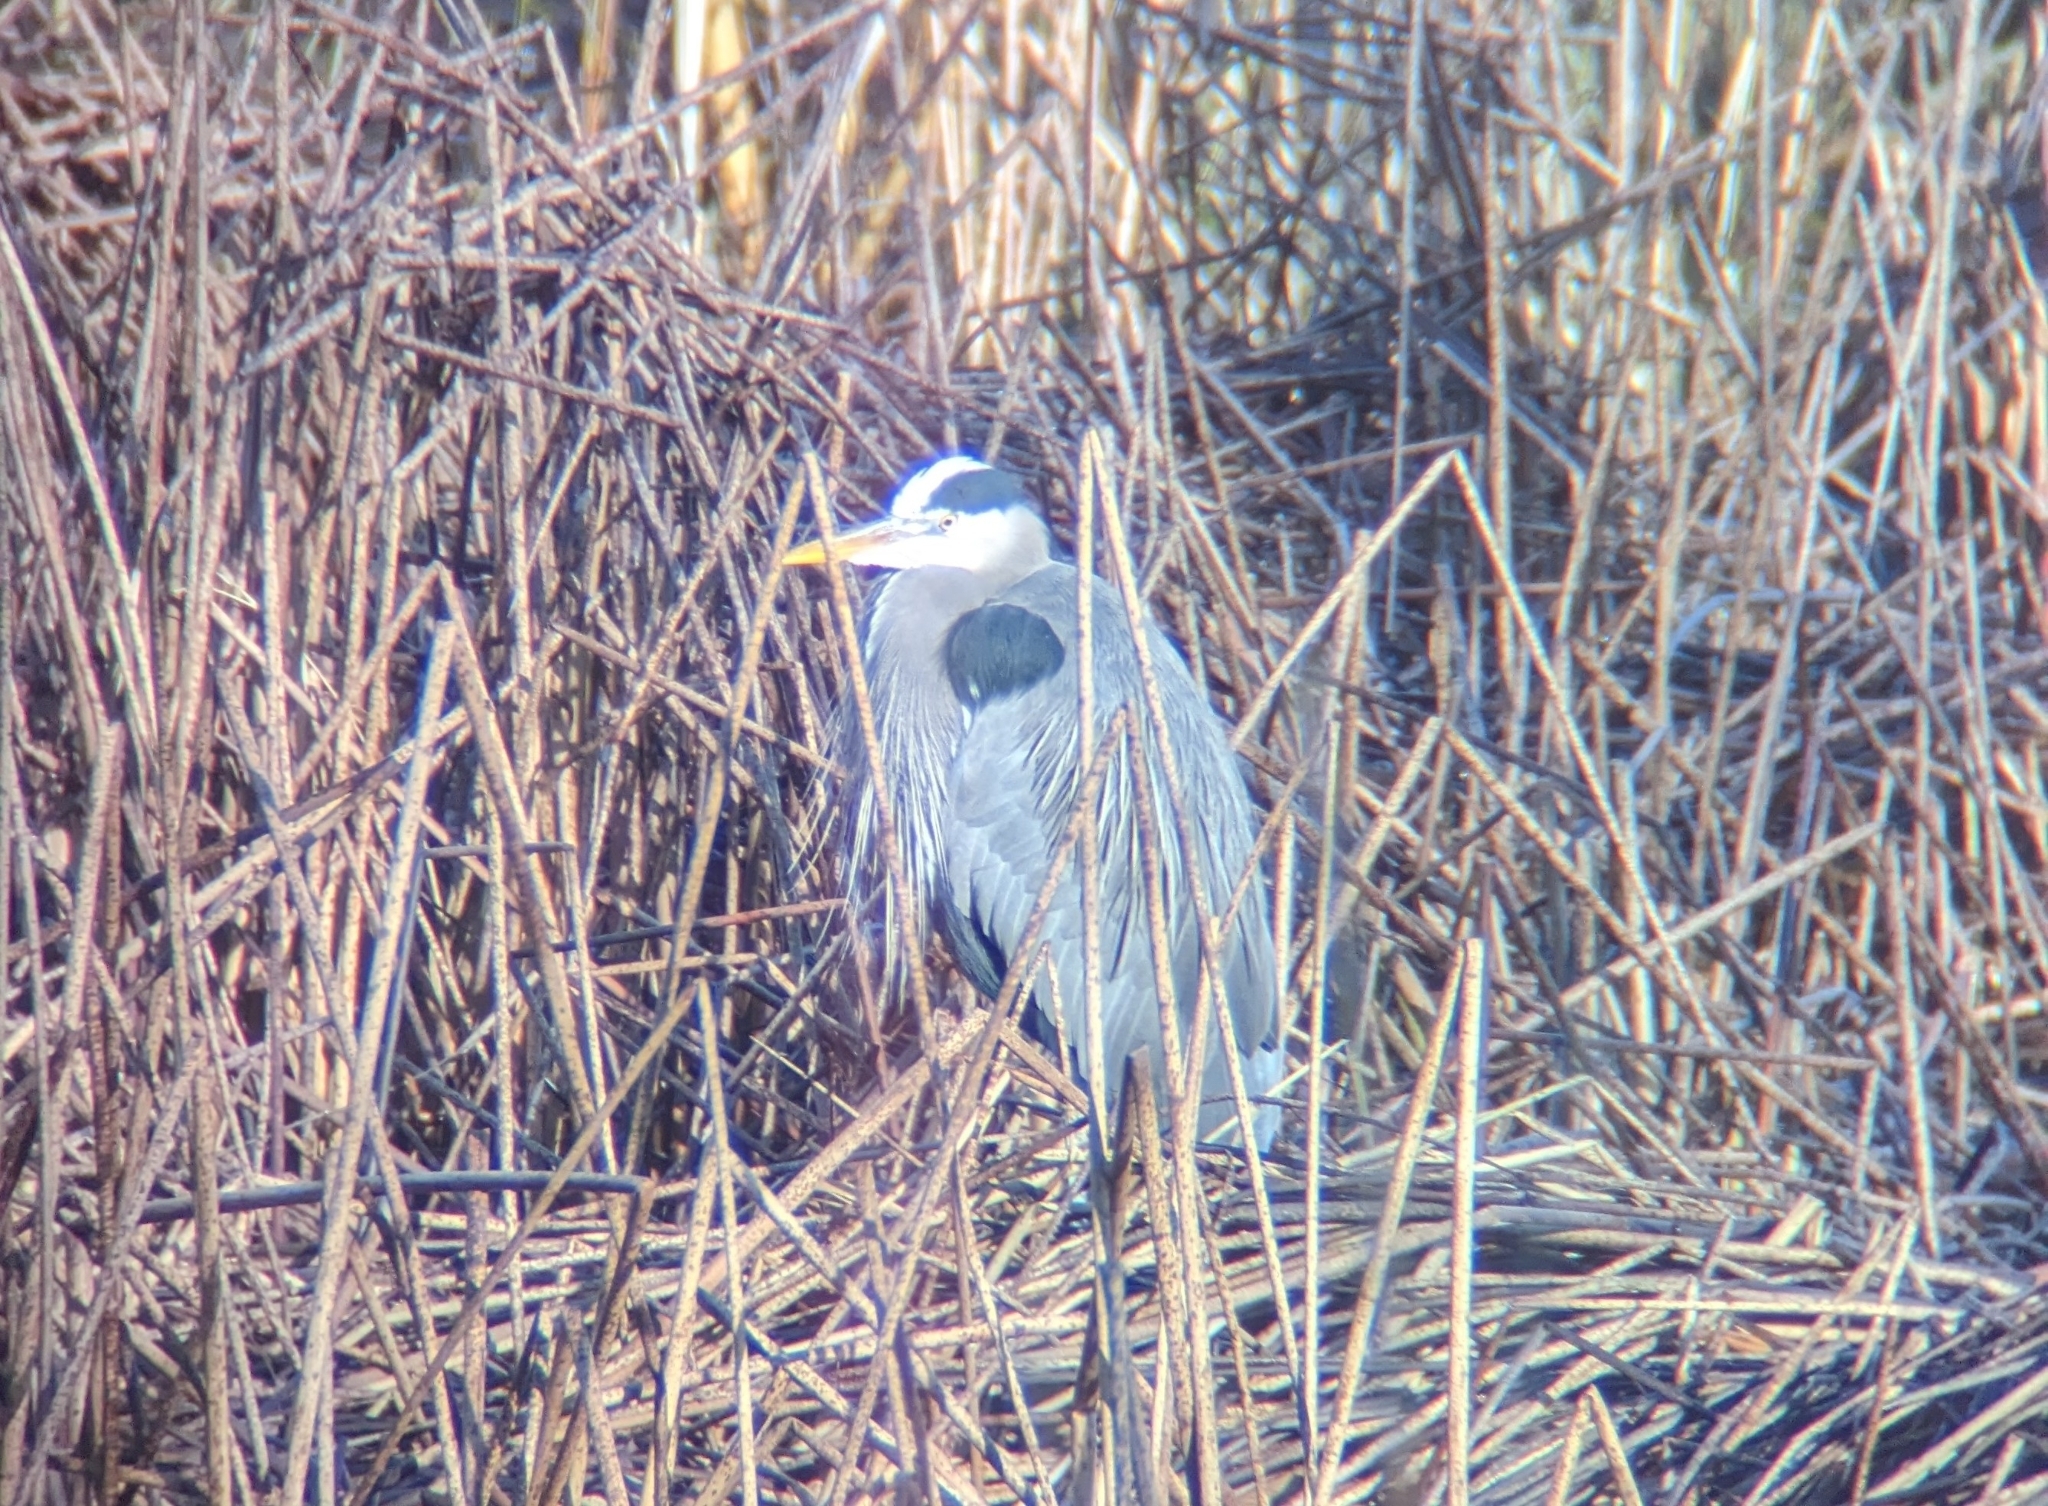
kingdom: Animalia
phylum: Chordata
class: Aves
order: Pelecaniformes
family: Ardeidae
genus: Ardea
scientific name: Ardea herodias
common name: Great blue heron
